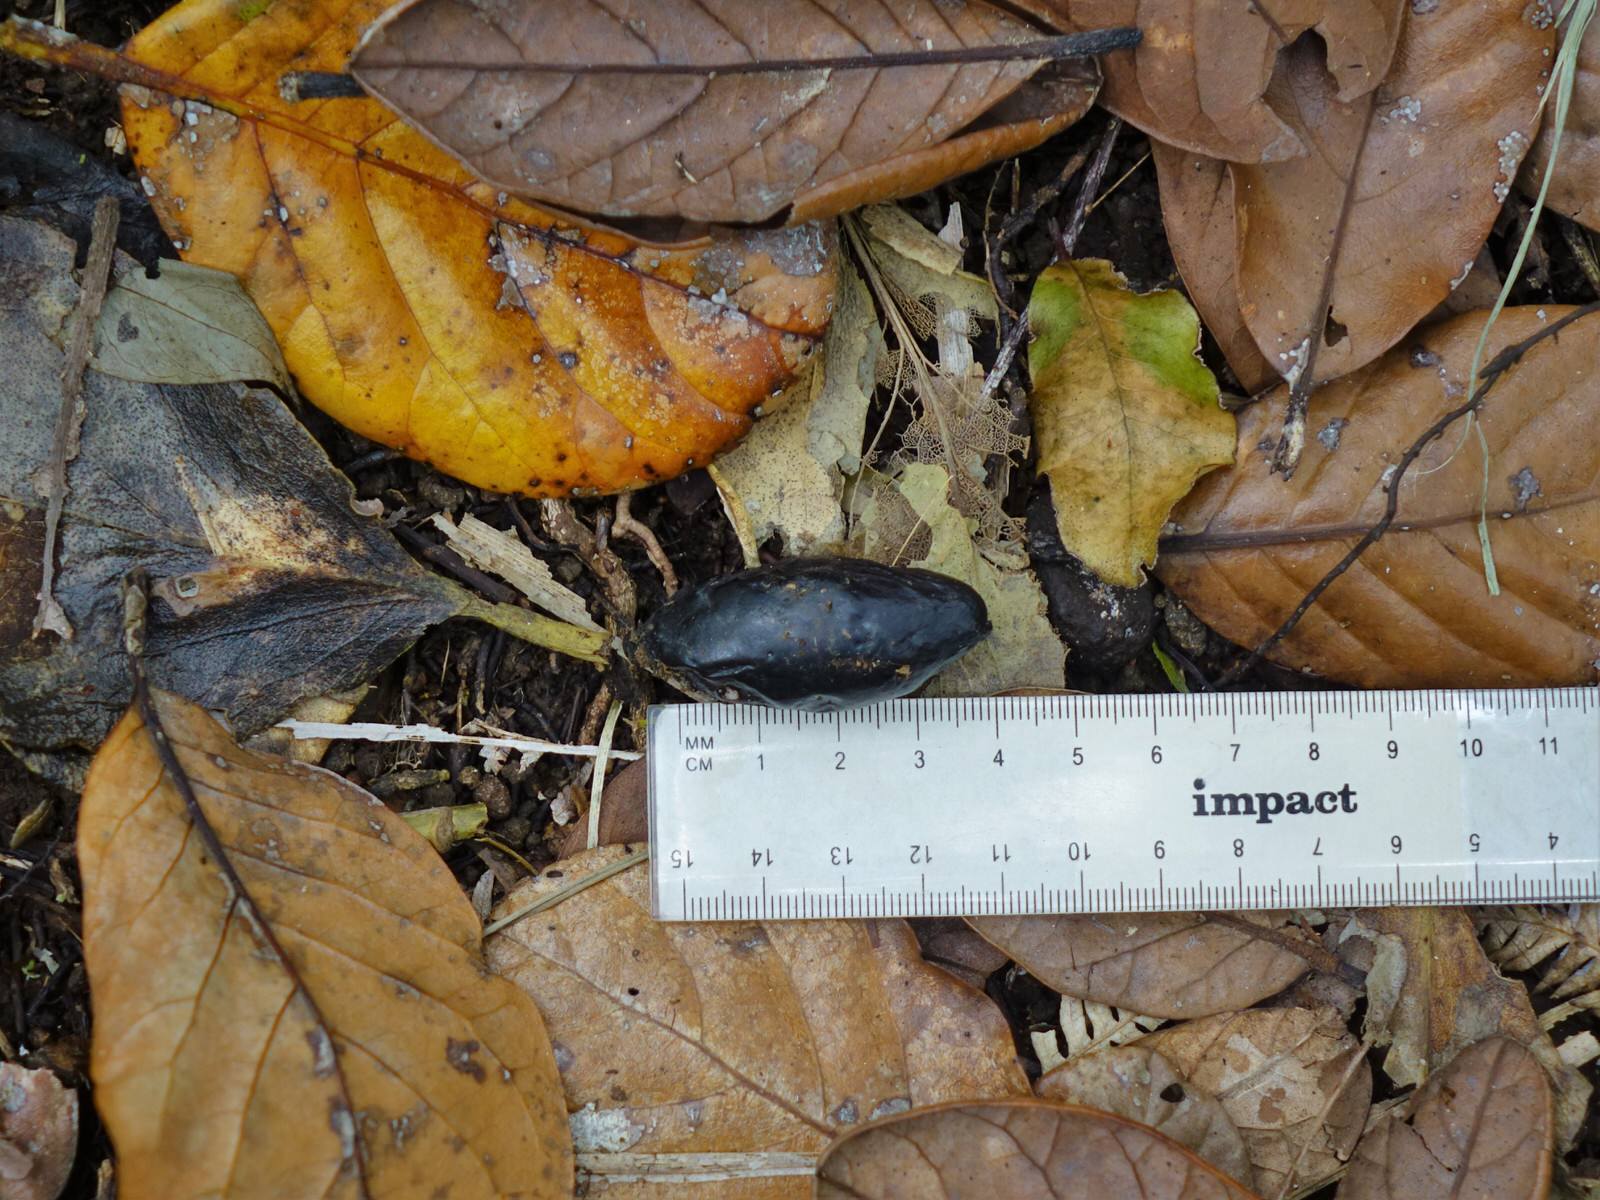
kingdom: Plantae
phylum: Tracheophyta
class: Magnoliopsida
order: Laurales
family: Lauraceae
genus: Beilschmiedia
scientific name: Beilschmiedia tarairi
